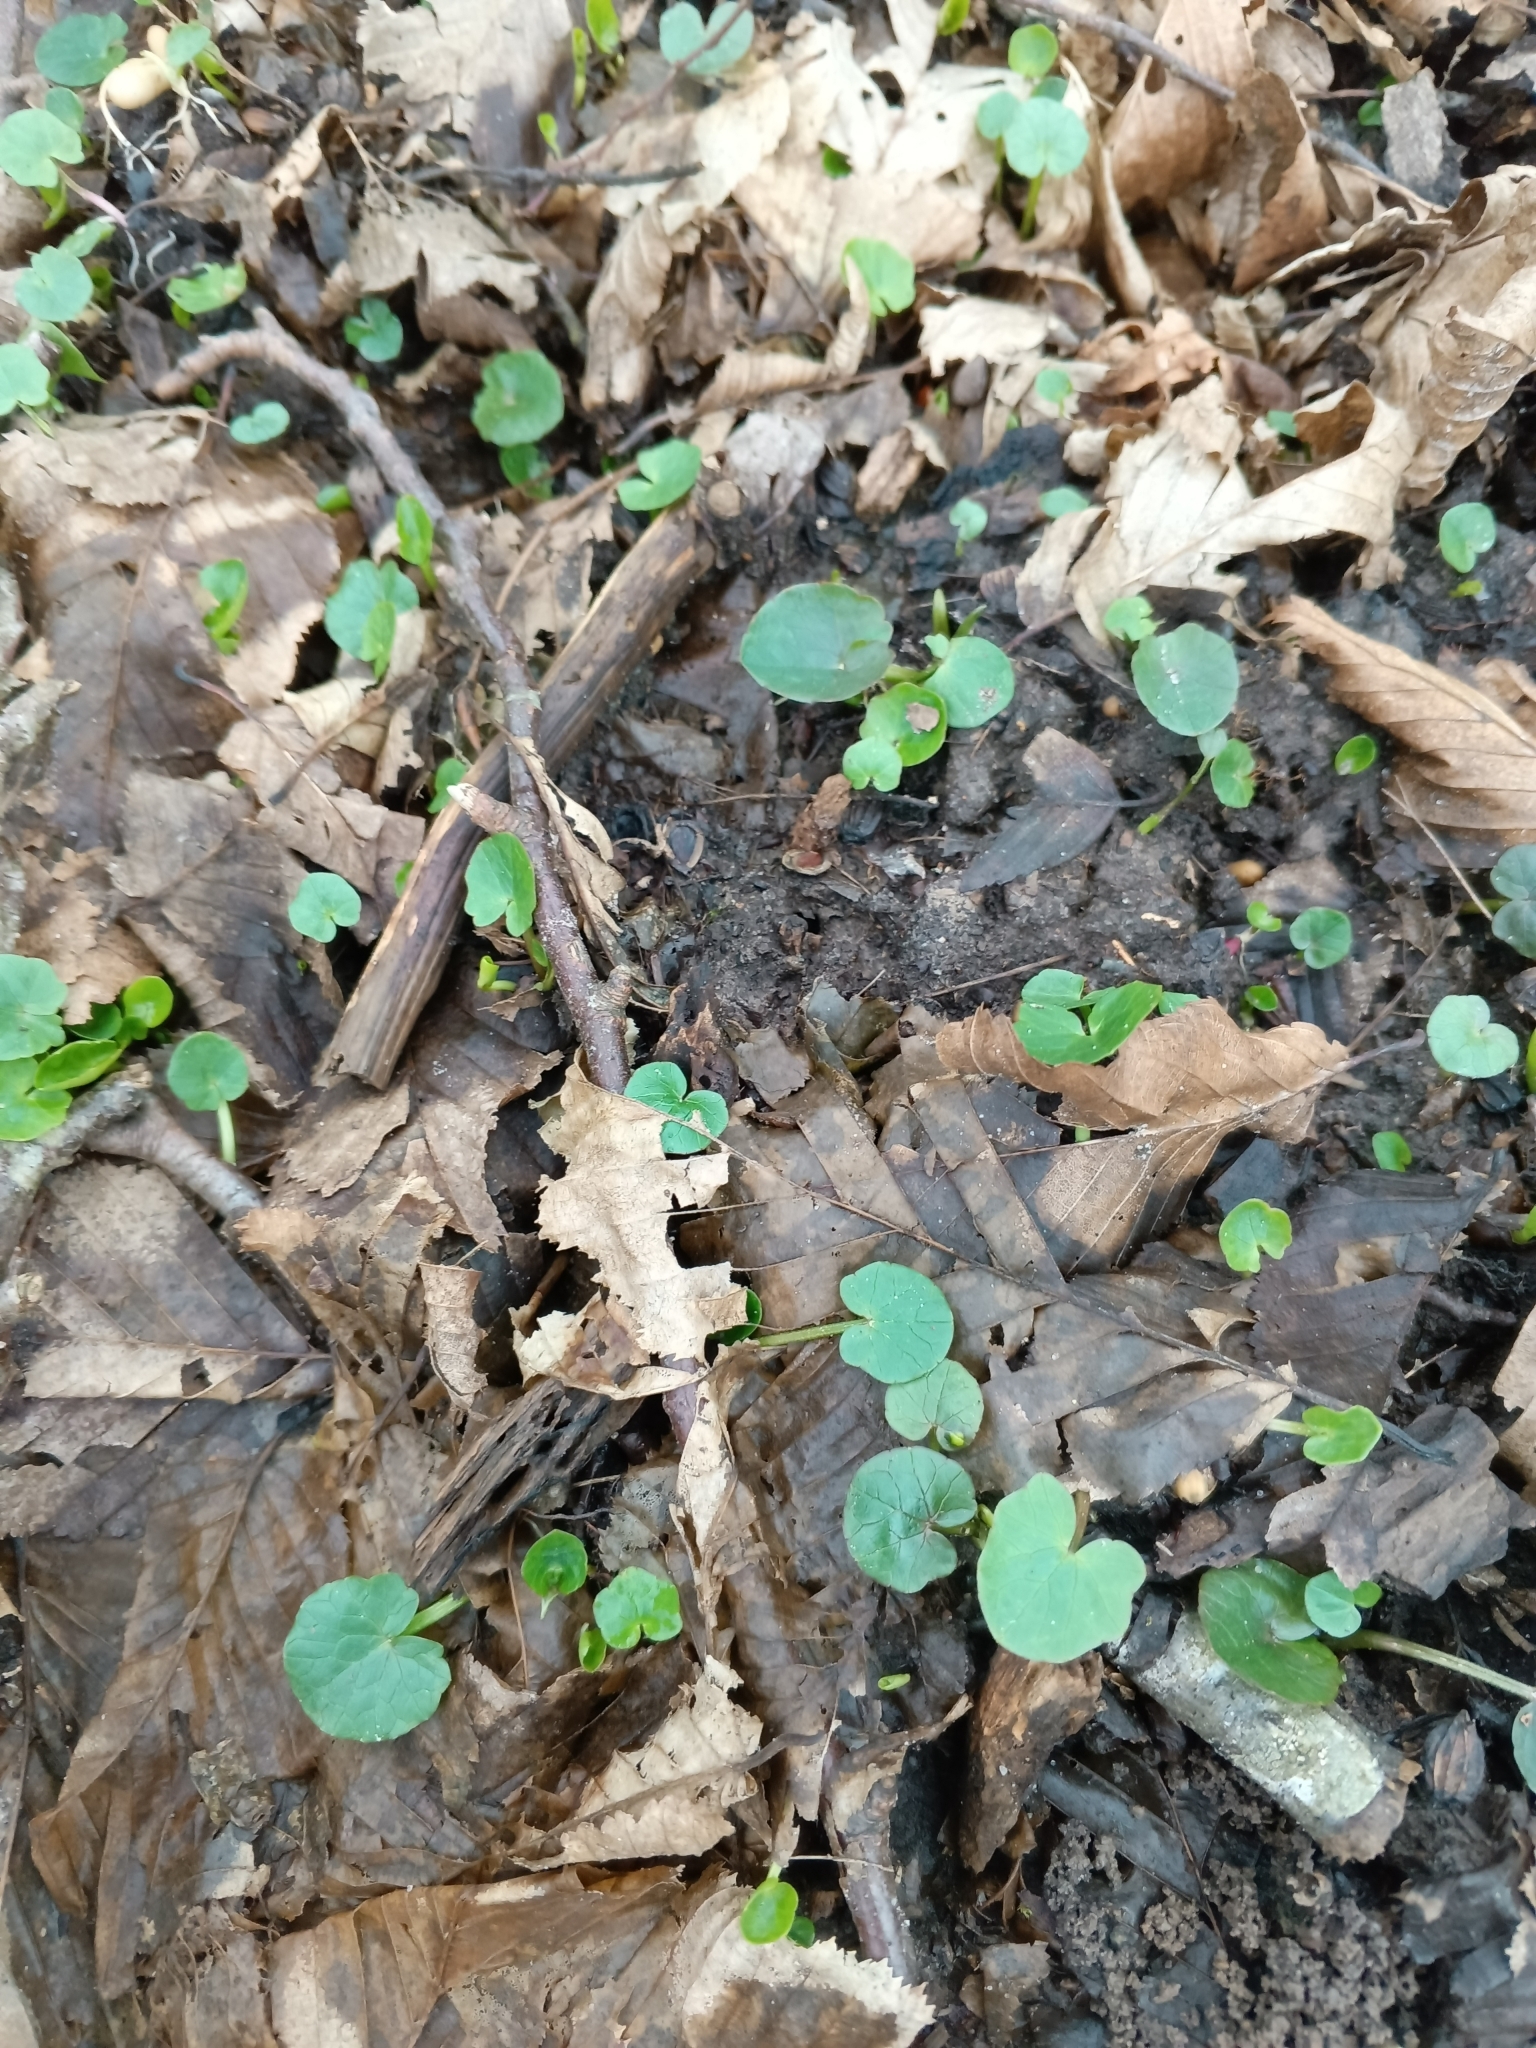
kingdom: Plantae
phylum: Tracheophyta
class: Magnoliopsida
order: Ranunculales
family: Ranunculaceae
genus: Ficaria
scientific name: Ficaria verna
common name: Lesser celandine
